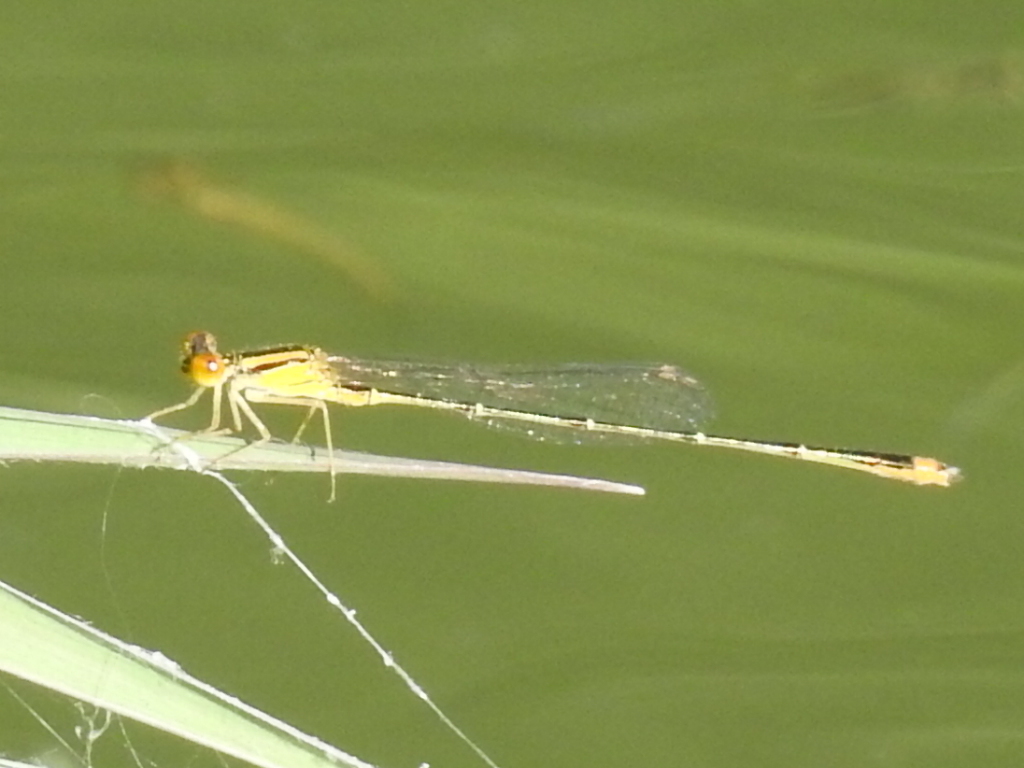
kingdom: Animalia
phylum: Arthropoda
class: Insecta
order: Odonata
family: Coenagrionidae
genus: Enallagma
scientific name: Enallagma signatum
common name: Orange bluet
